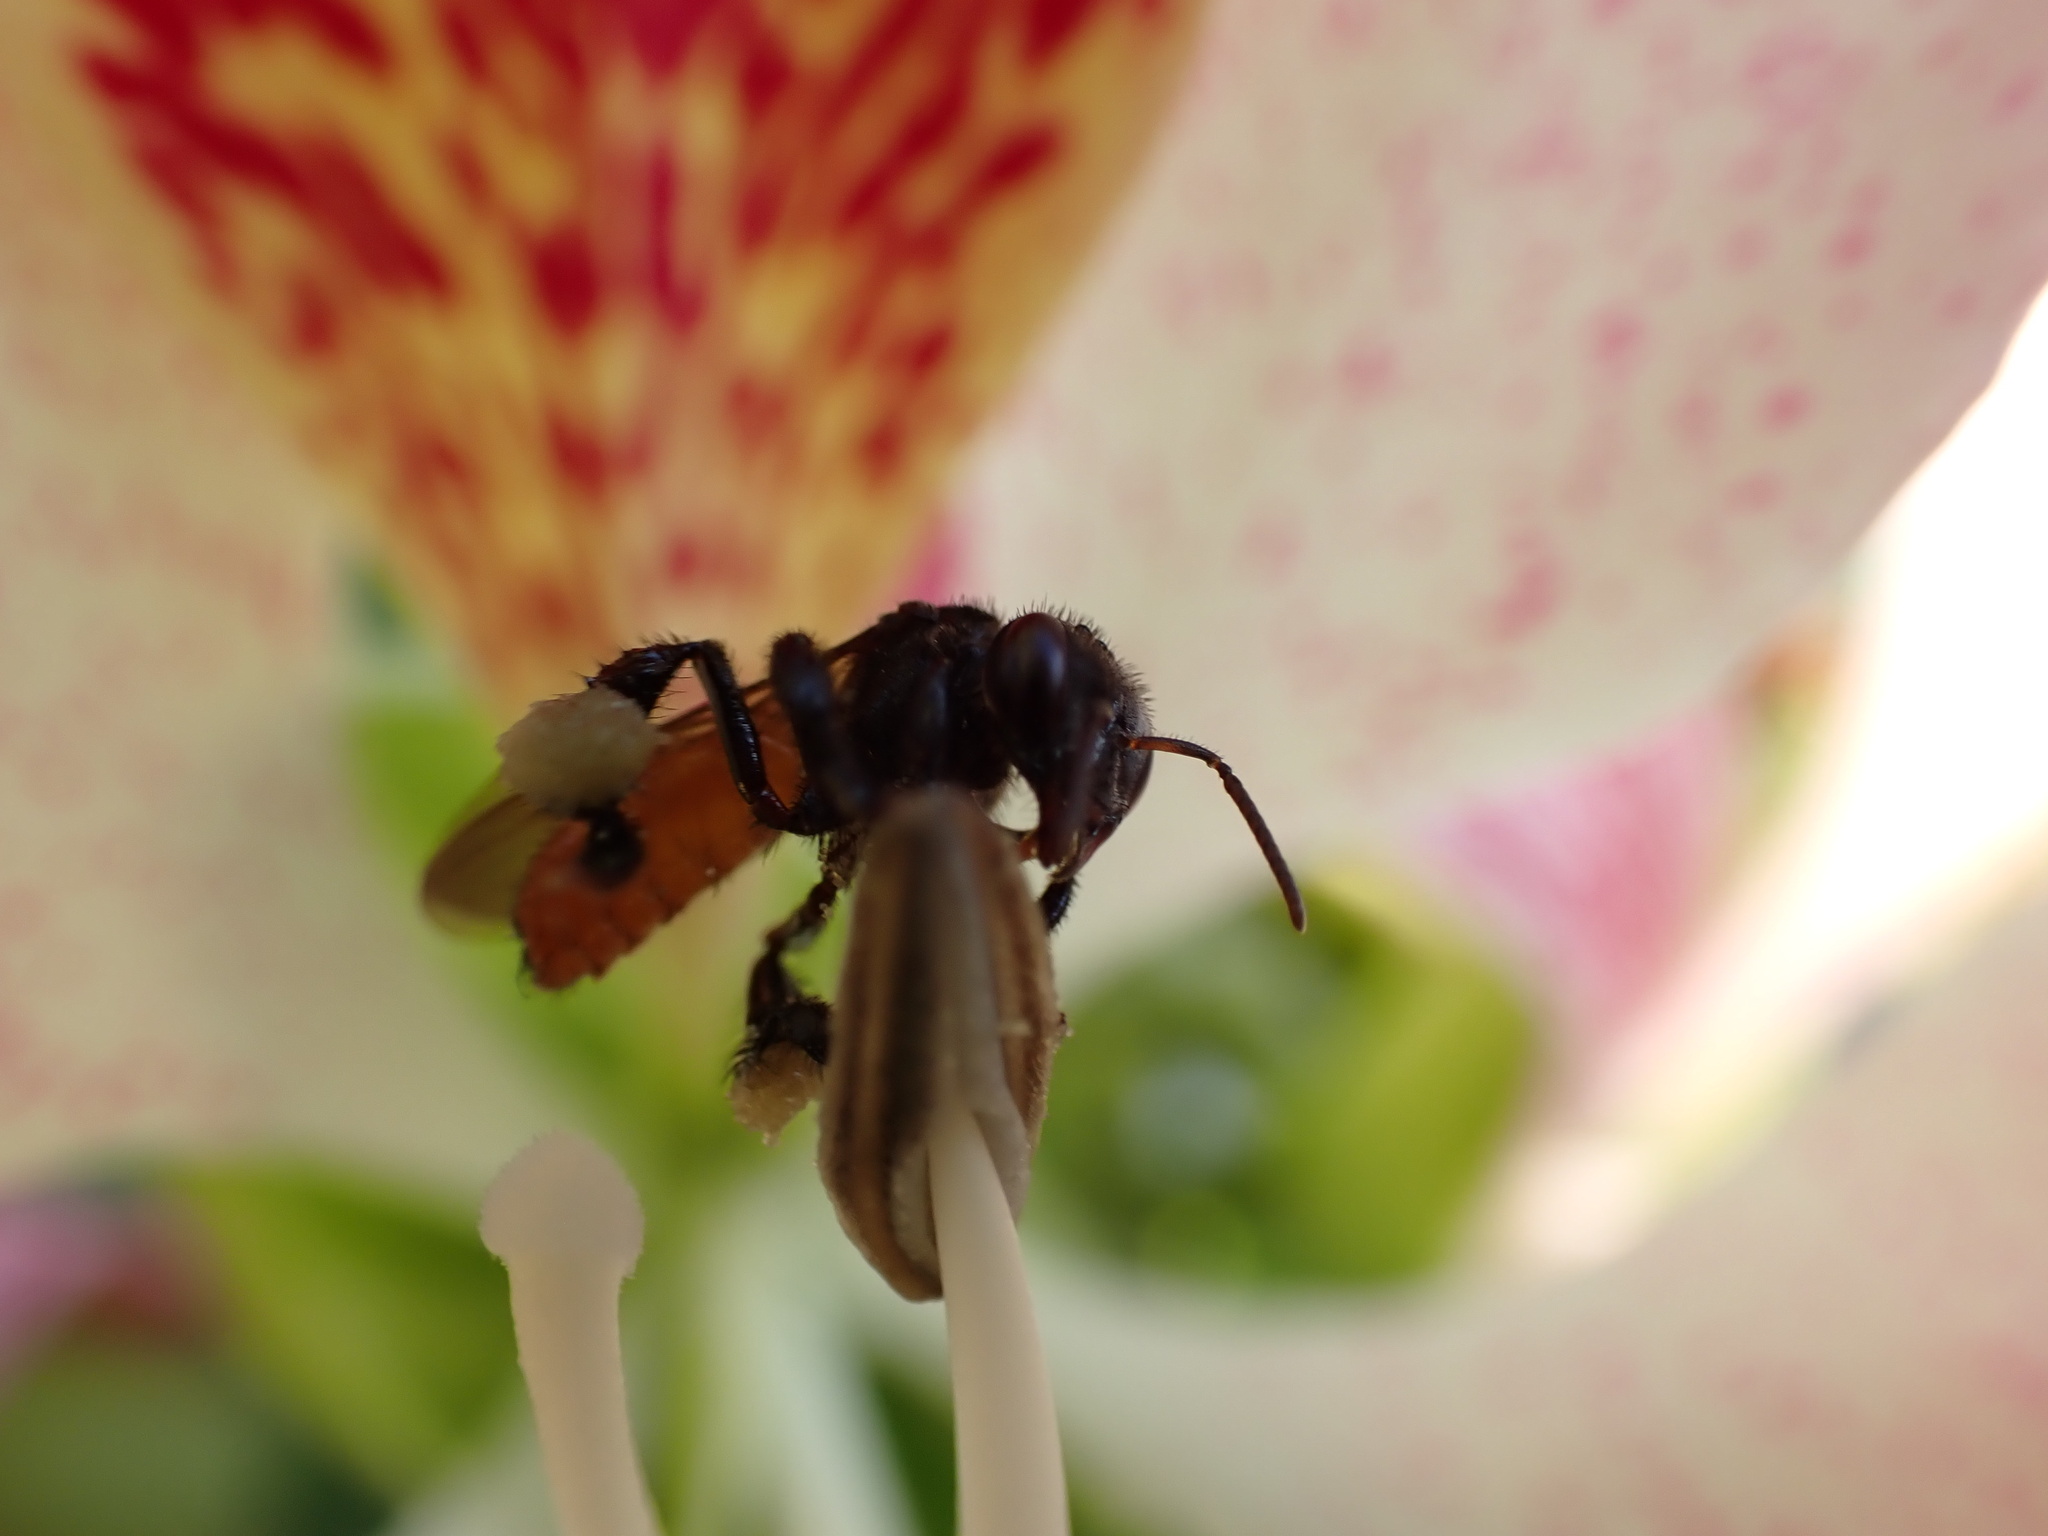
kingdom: Animalia
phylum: Arthropoda
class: Insecta
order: Hymenoptera
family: Apidae
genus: Trigona
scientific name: Trigona fulviventris
